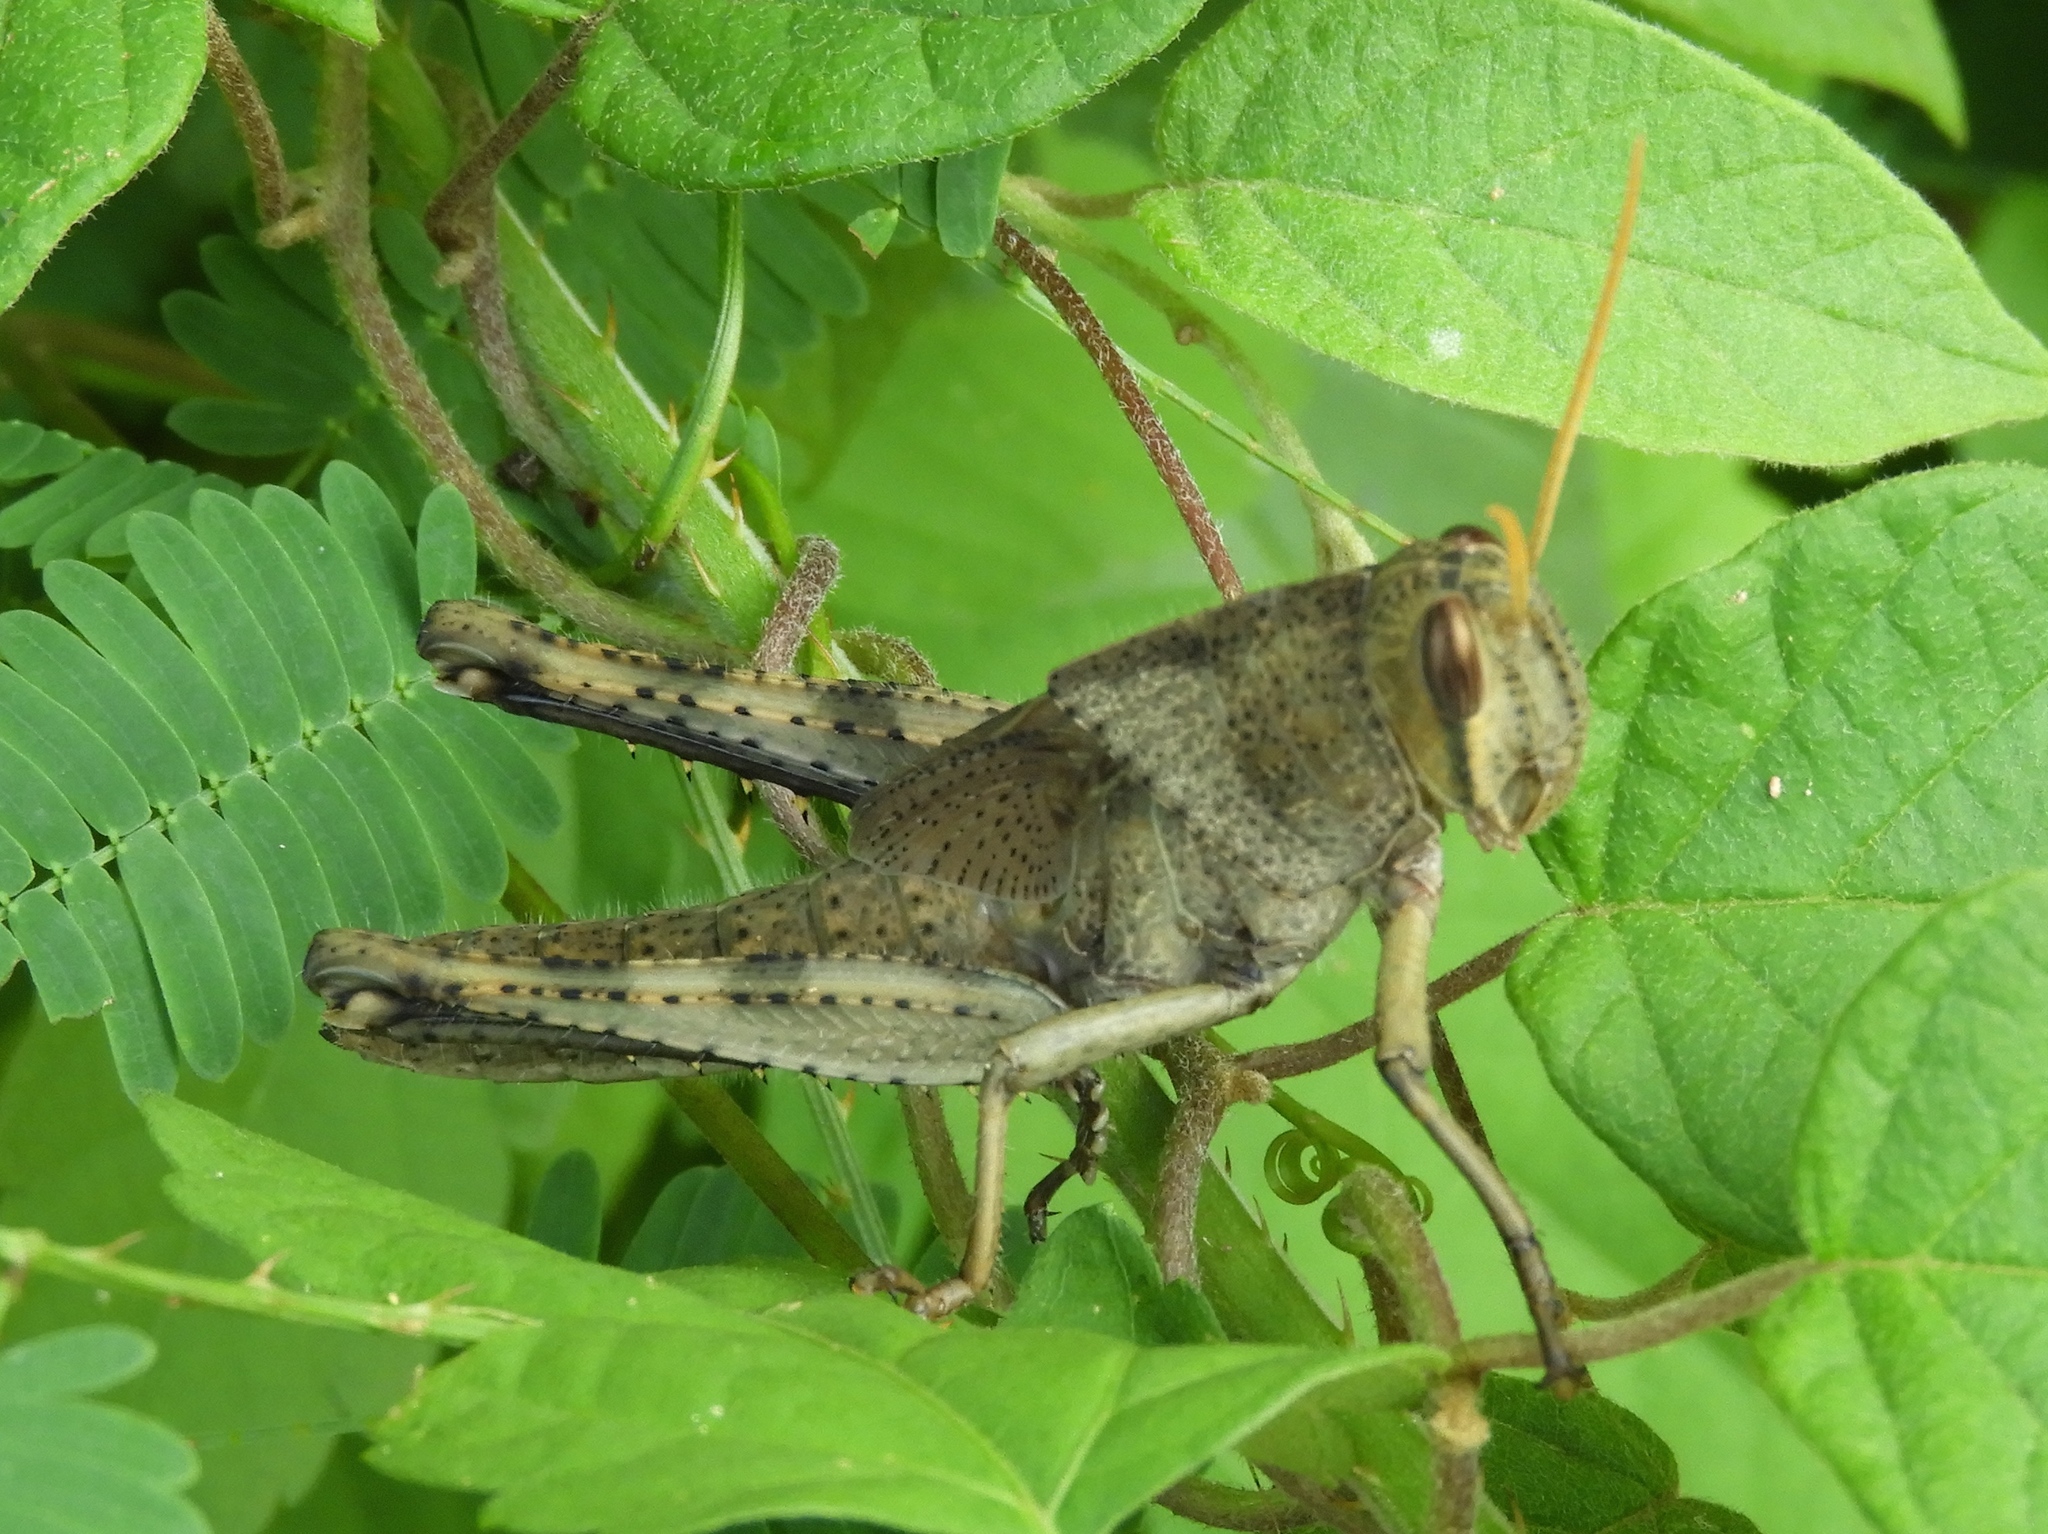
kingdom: Animalia
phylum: Arthropoda
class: Insecta
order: Orthoptera
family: Acrididae
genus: Schistocerca
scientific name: Schistocerca nitens
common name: Vagrant grasshopper
